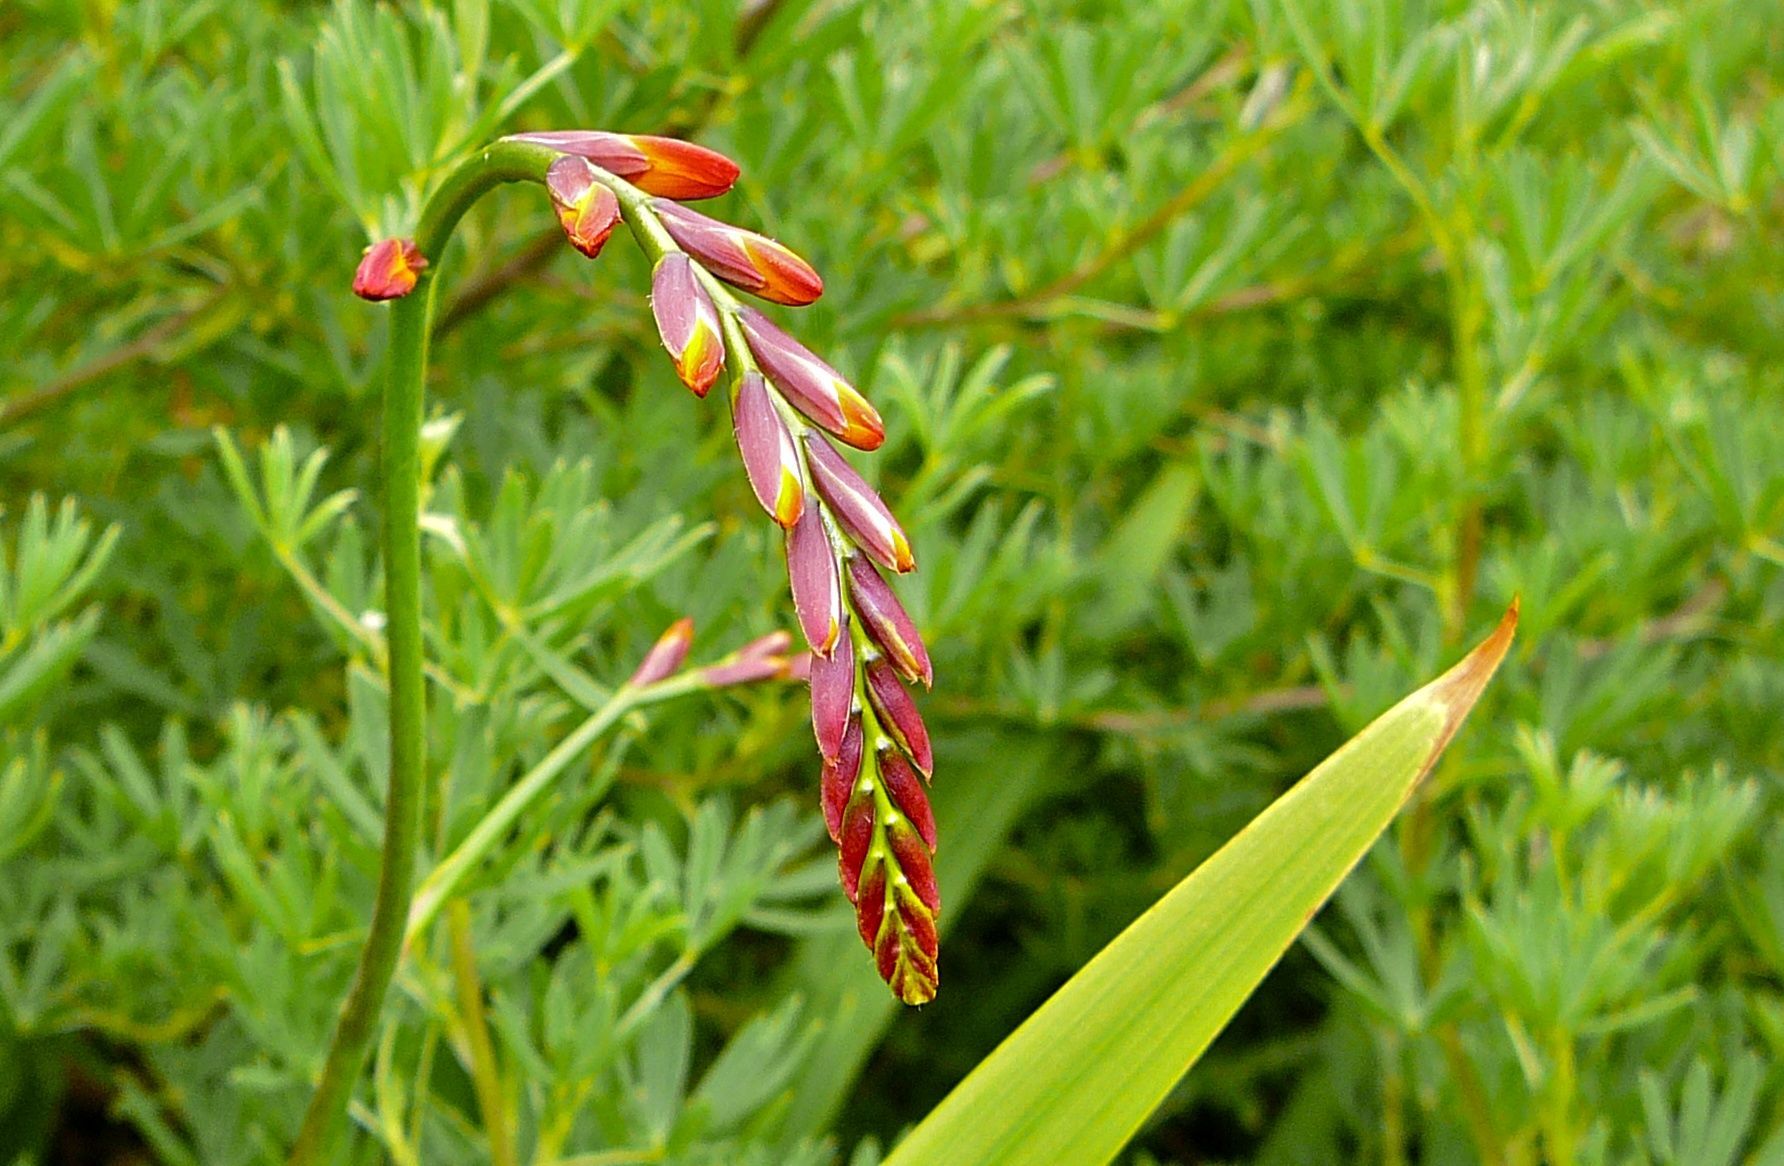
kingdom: Plantae
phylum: Tracheophyta
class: Liliopsida
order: Asparagales
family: Iridaceae
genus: Crocosmia
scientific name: Crocosmia crocosmiiflora
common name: Montbretia
